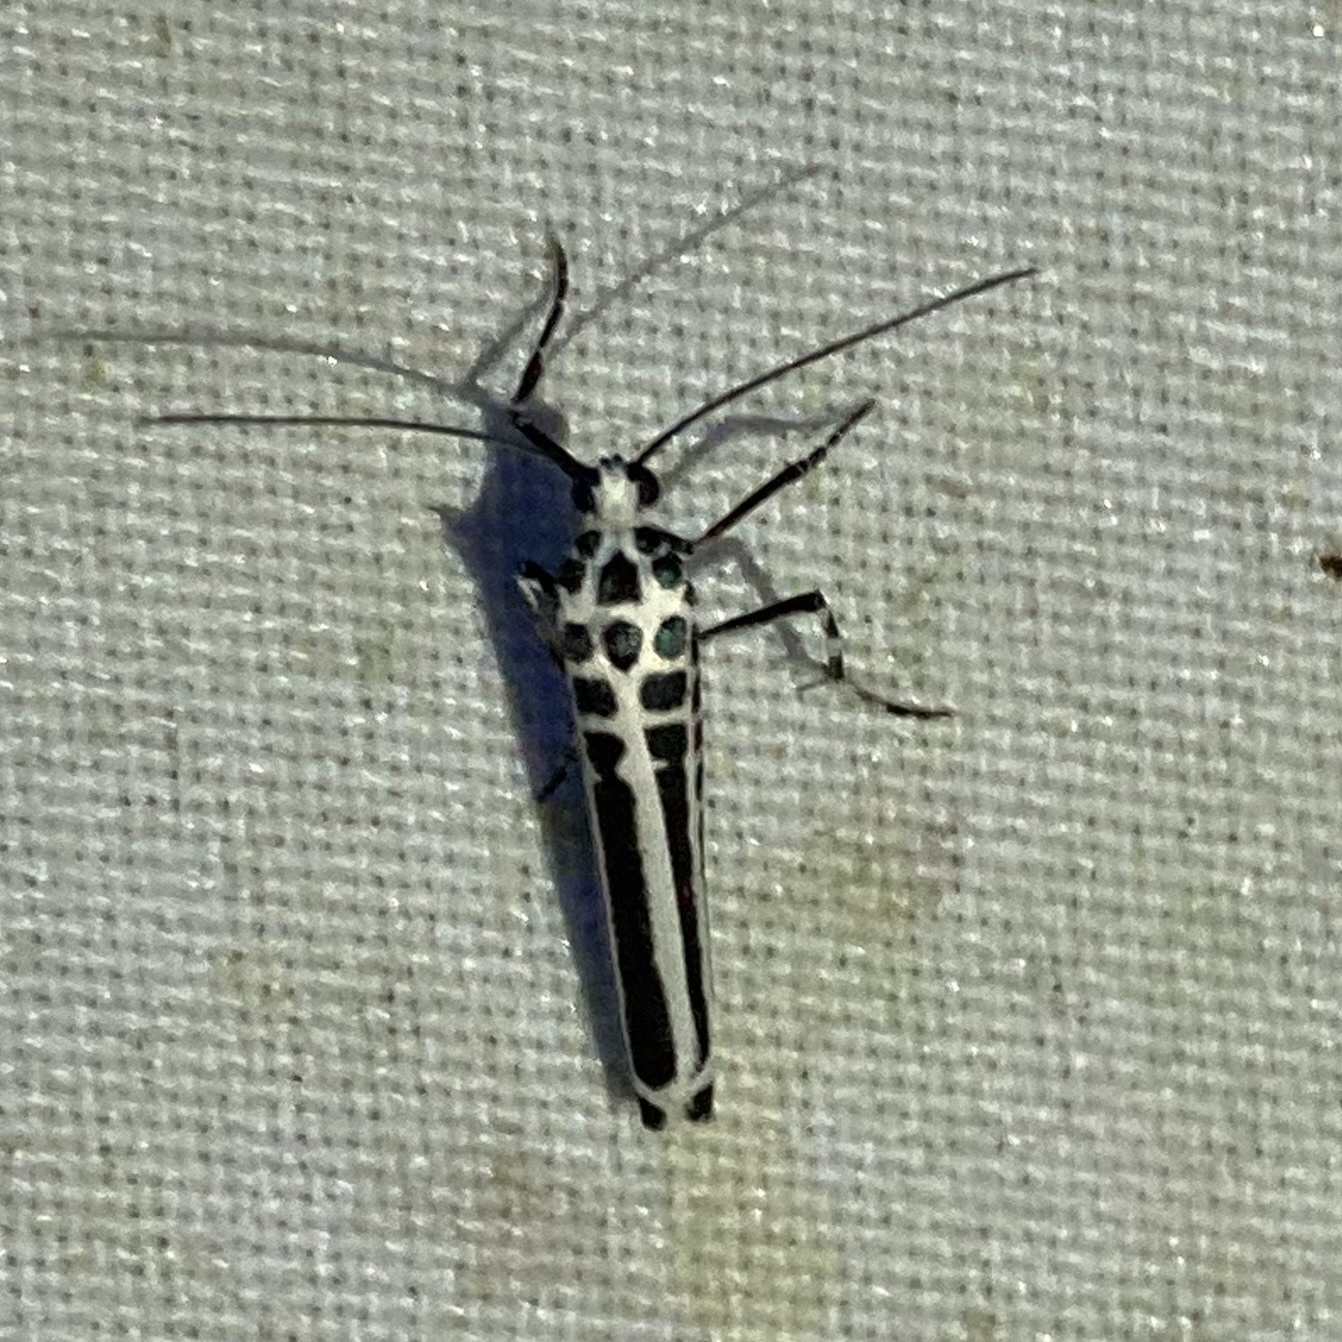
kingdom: Animalia
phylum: Arthropoda
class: Insecta
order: Lepidoptera
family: Attevidae
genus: Atteva
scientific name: Atteva zebra
